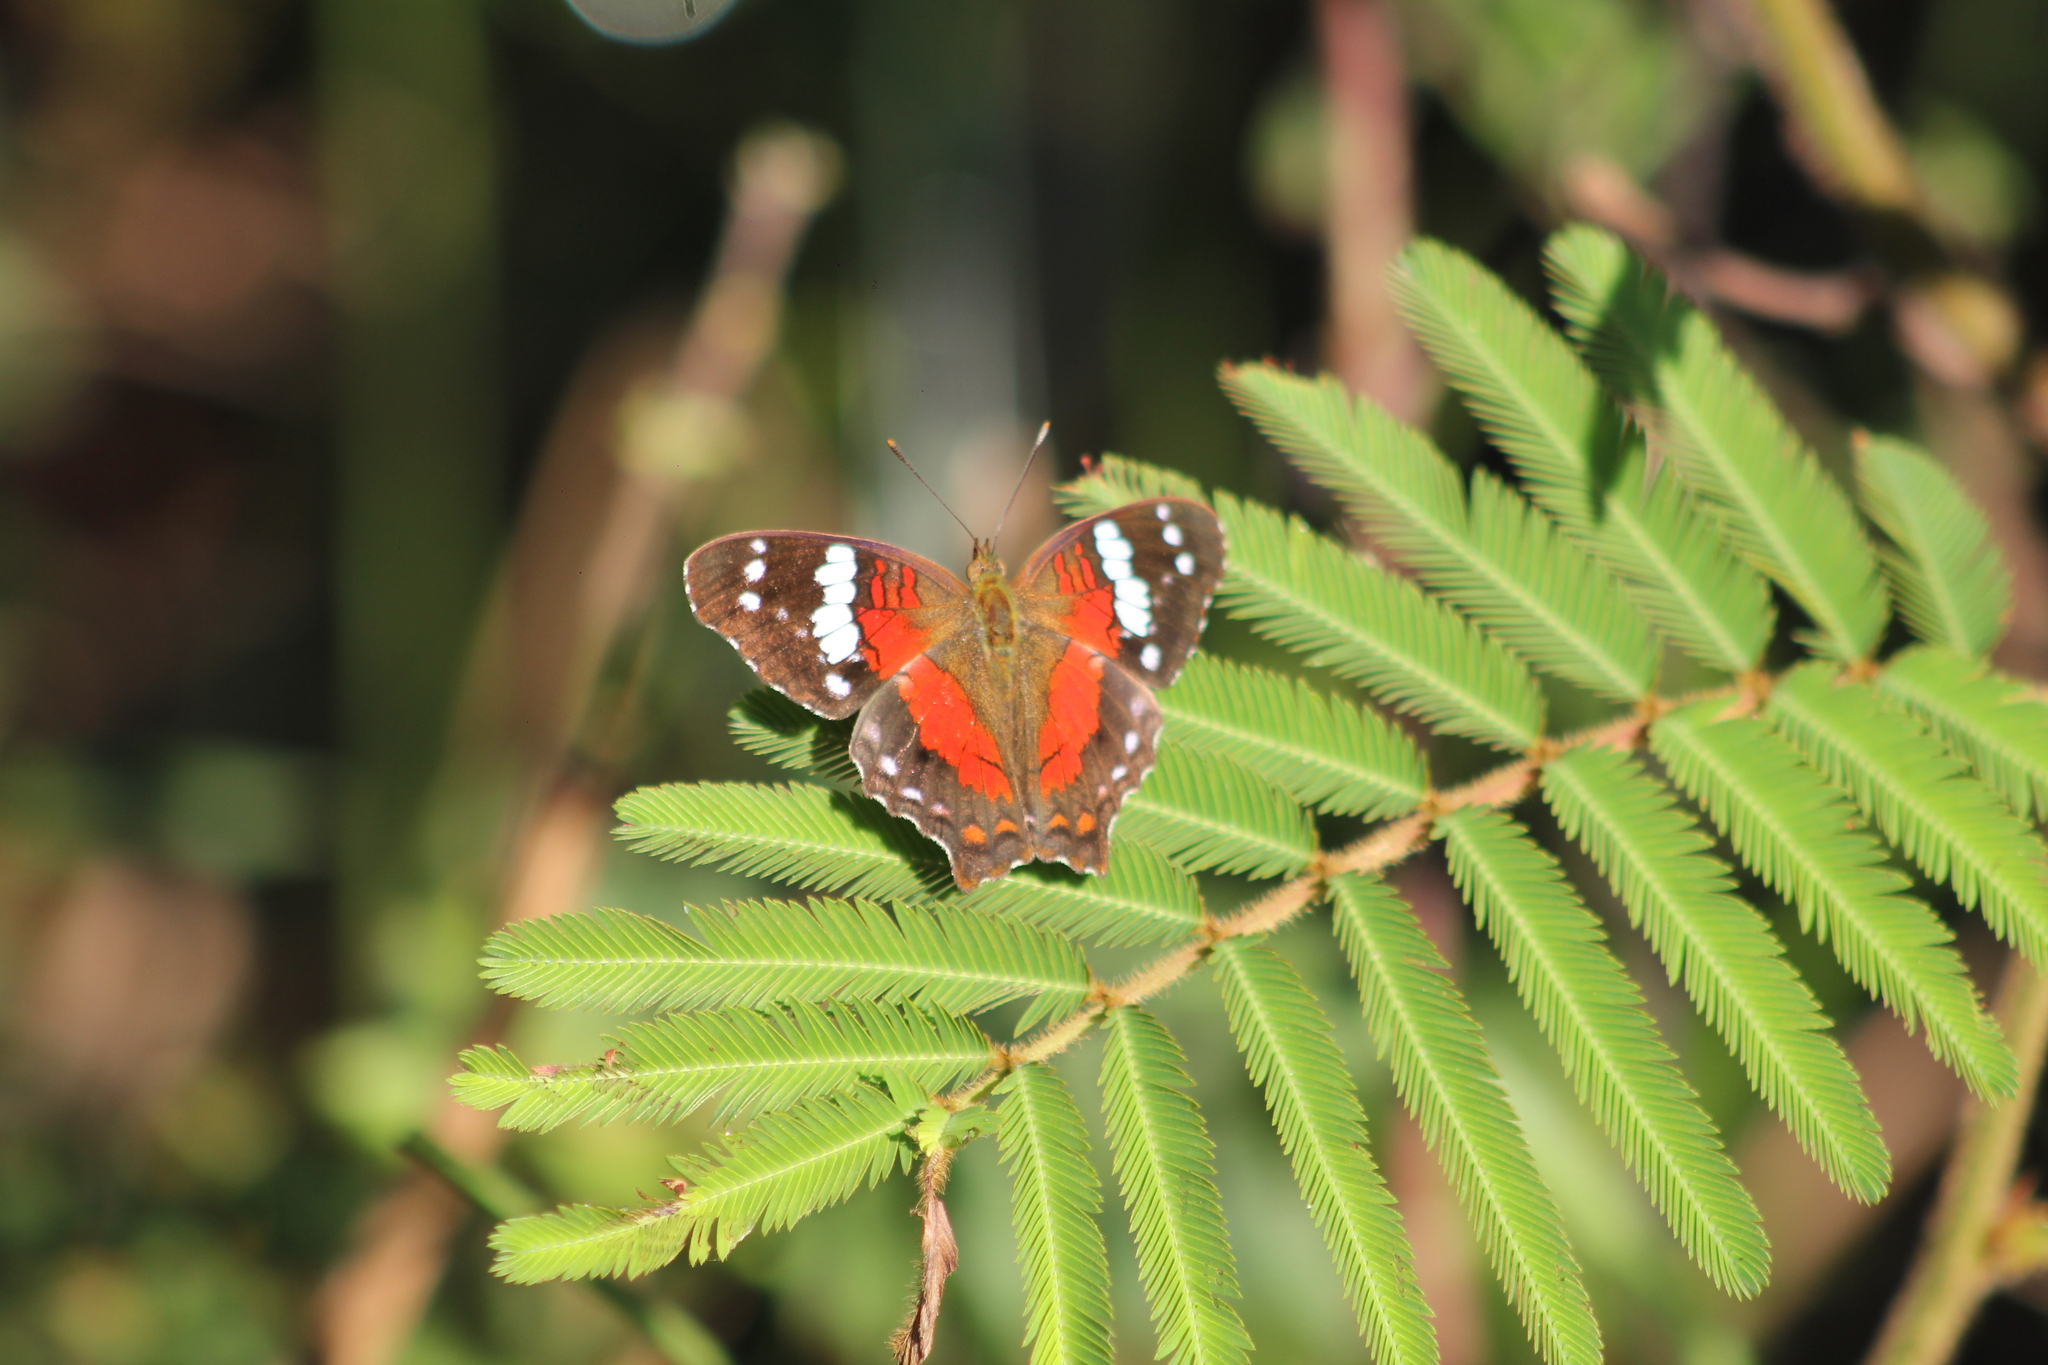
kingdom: Animalia
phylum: Arthropoda
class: Insecta
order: Lepidoptera
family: Nymphalidae
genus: Anartia
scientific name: Anartia amathea
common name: Red peacock
